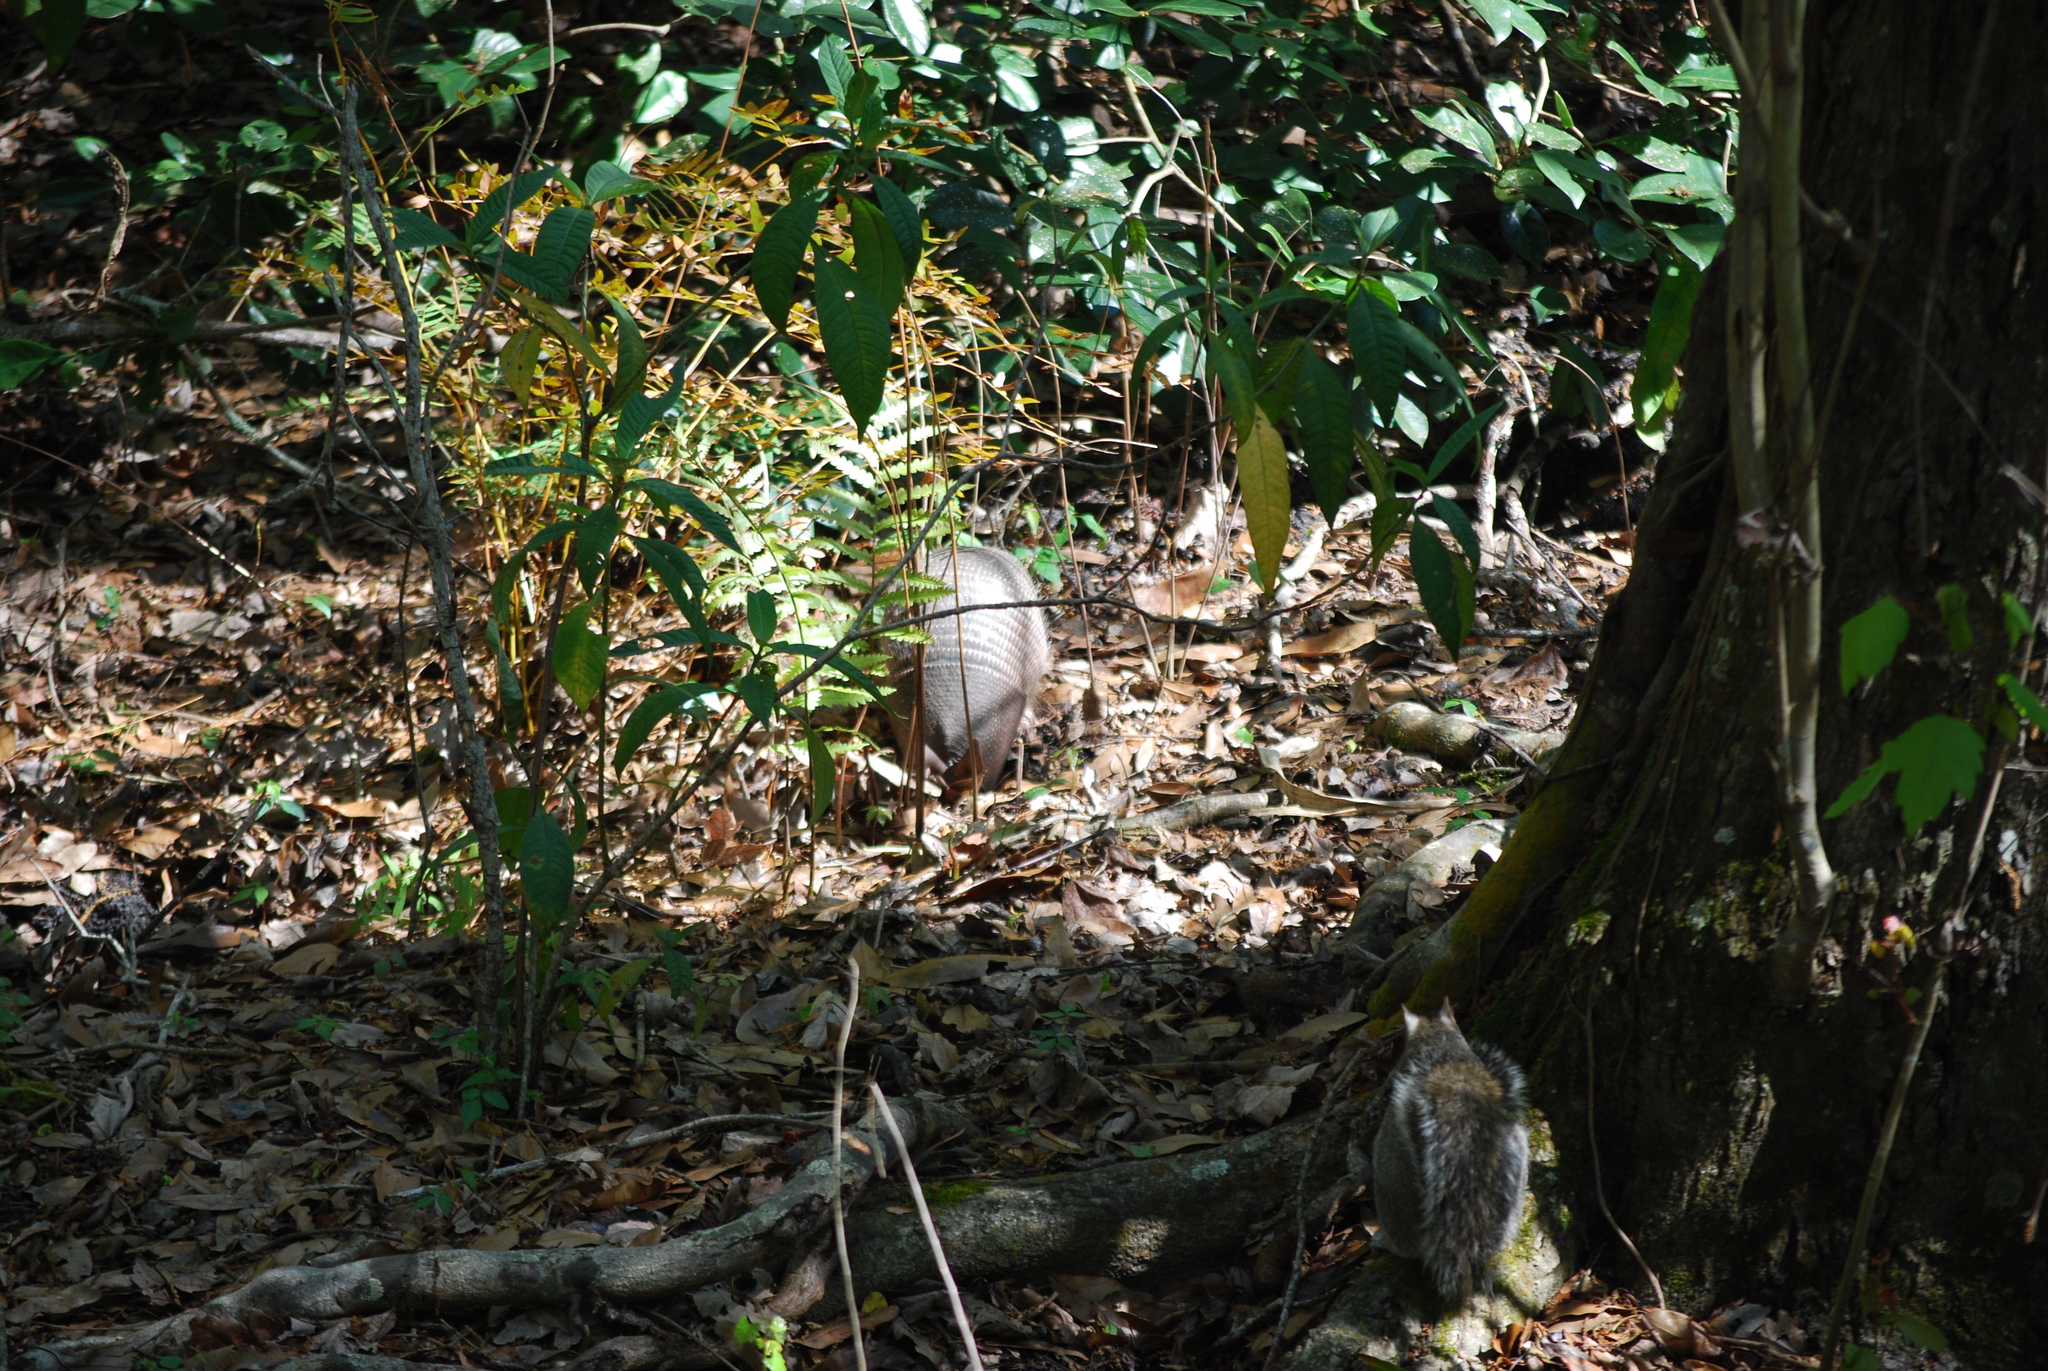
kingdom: Animalia
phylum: Chordata
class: Mammalia
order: Cingulata
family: Dasypodidae
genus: Dasypus
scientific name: Dasypus novemcinctus
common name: Nine-banded armadillo
